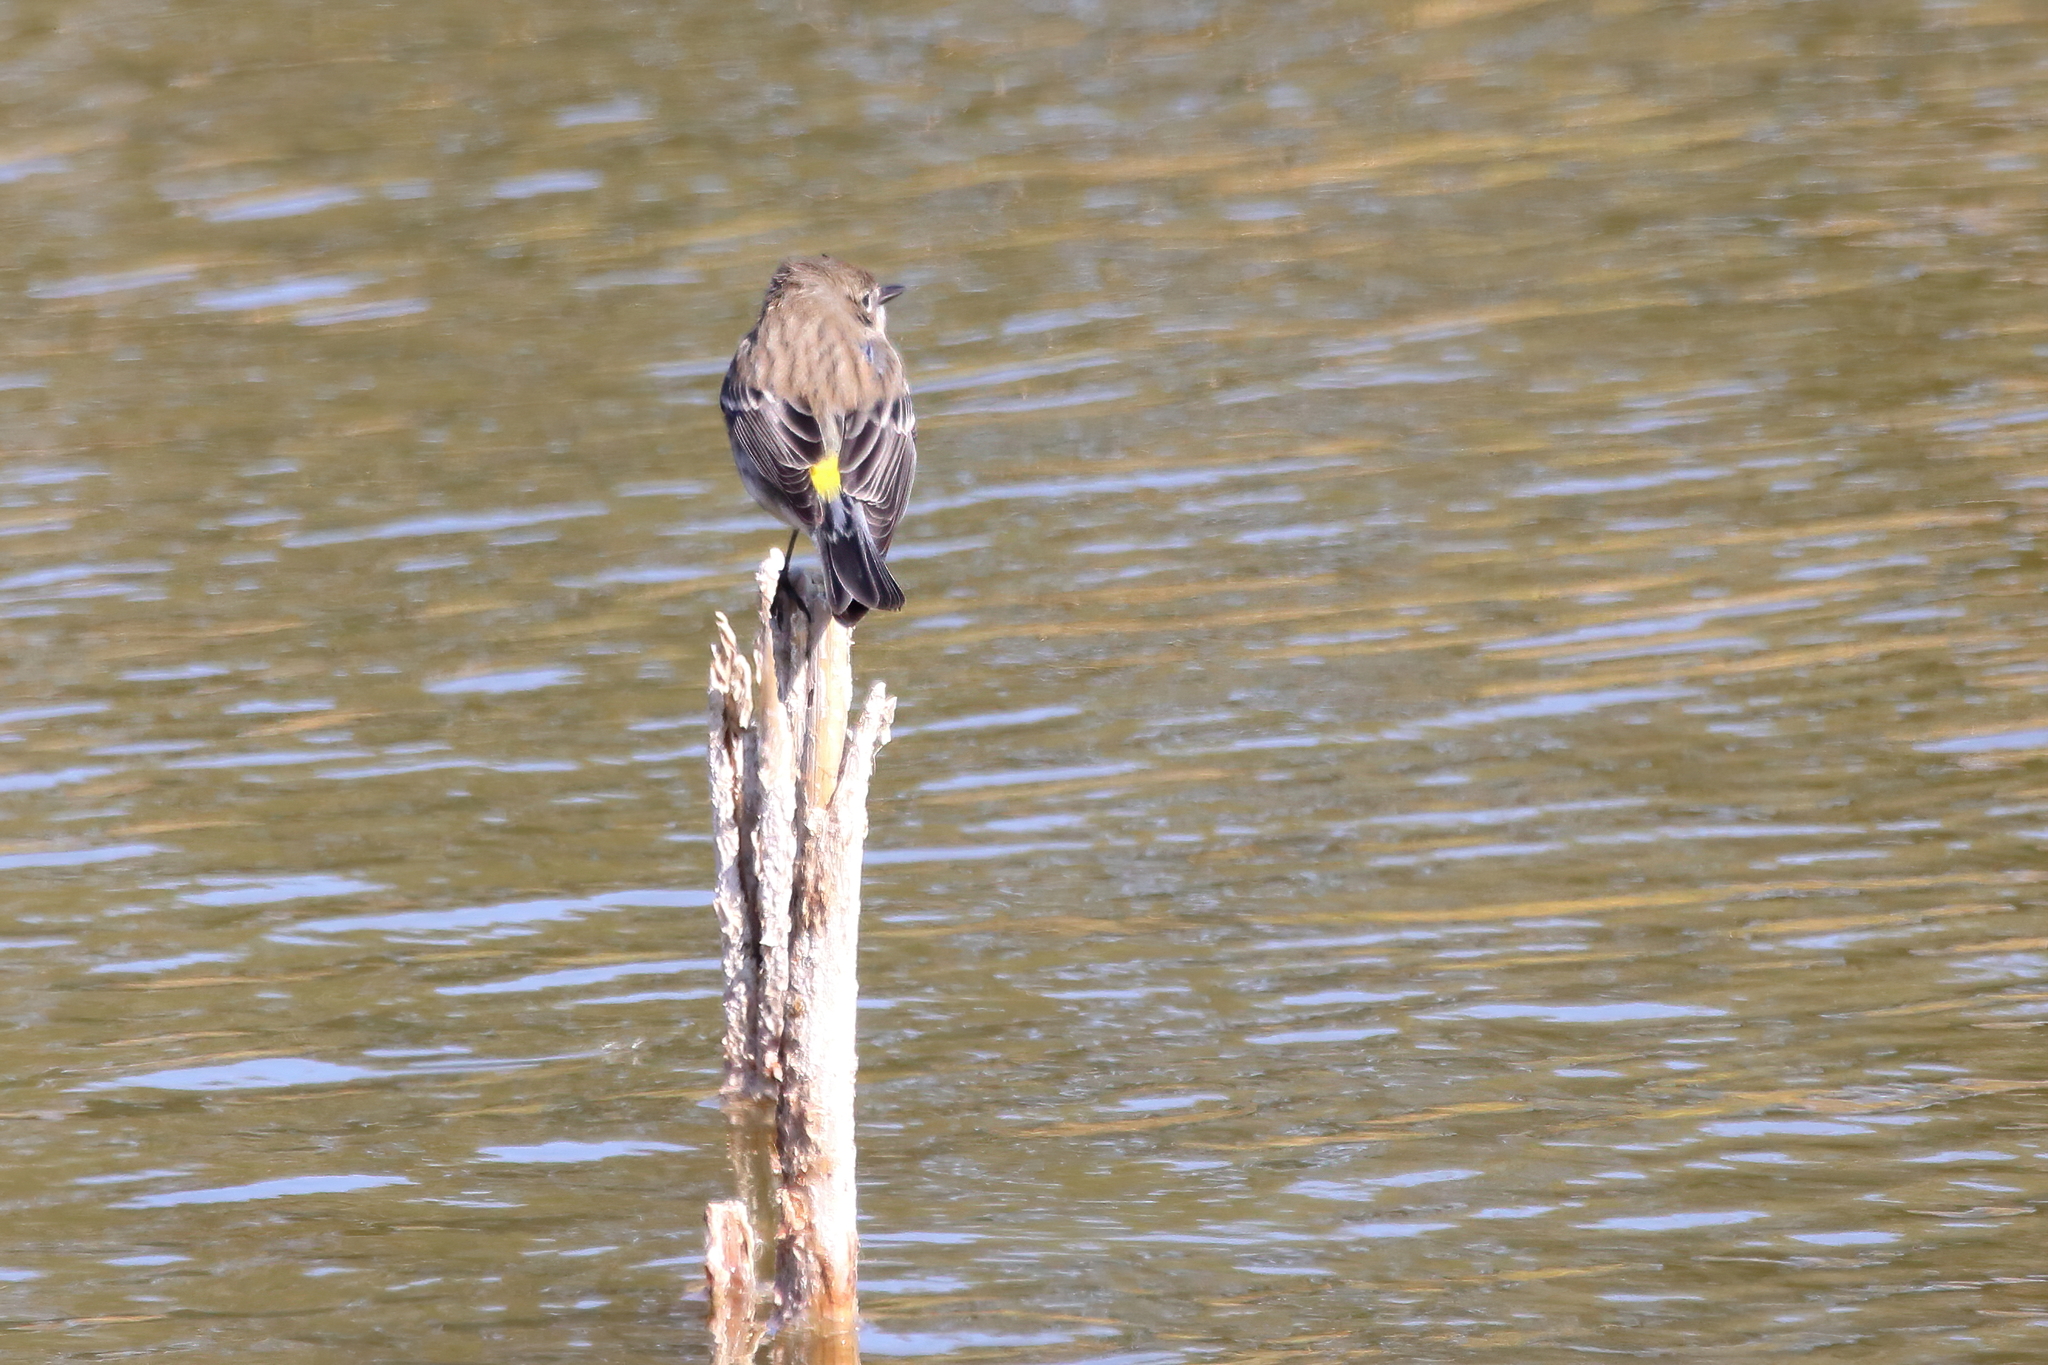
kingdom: Animalia
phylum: Chordata
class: Aves
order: Passeriformes
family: Parulidae
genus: Setophaga
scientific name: Setophaga coronata
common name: Myrtle warbler
